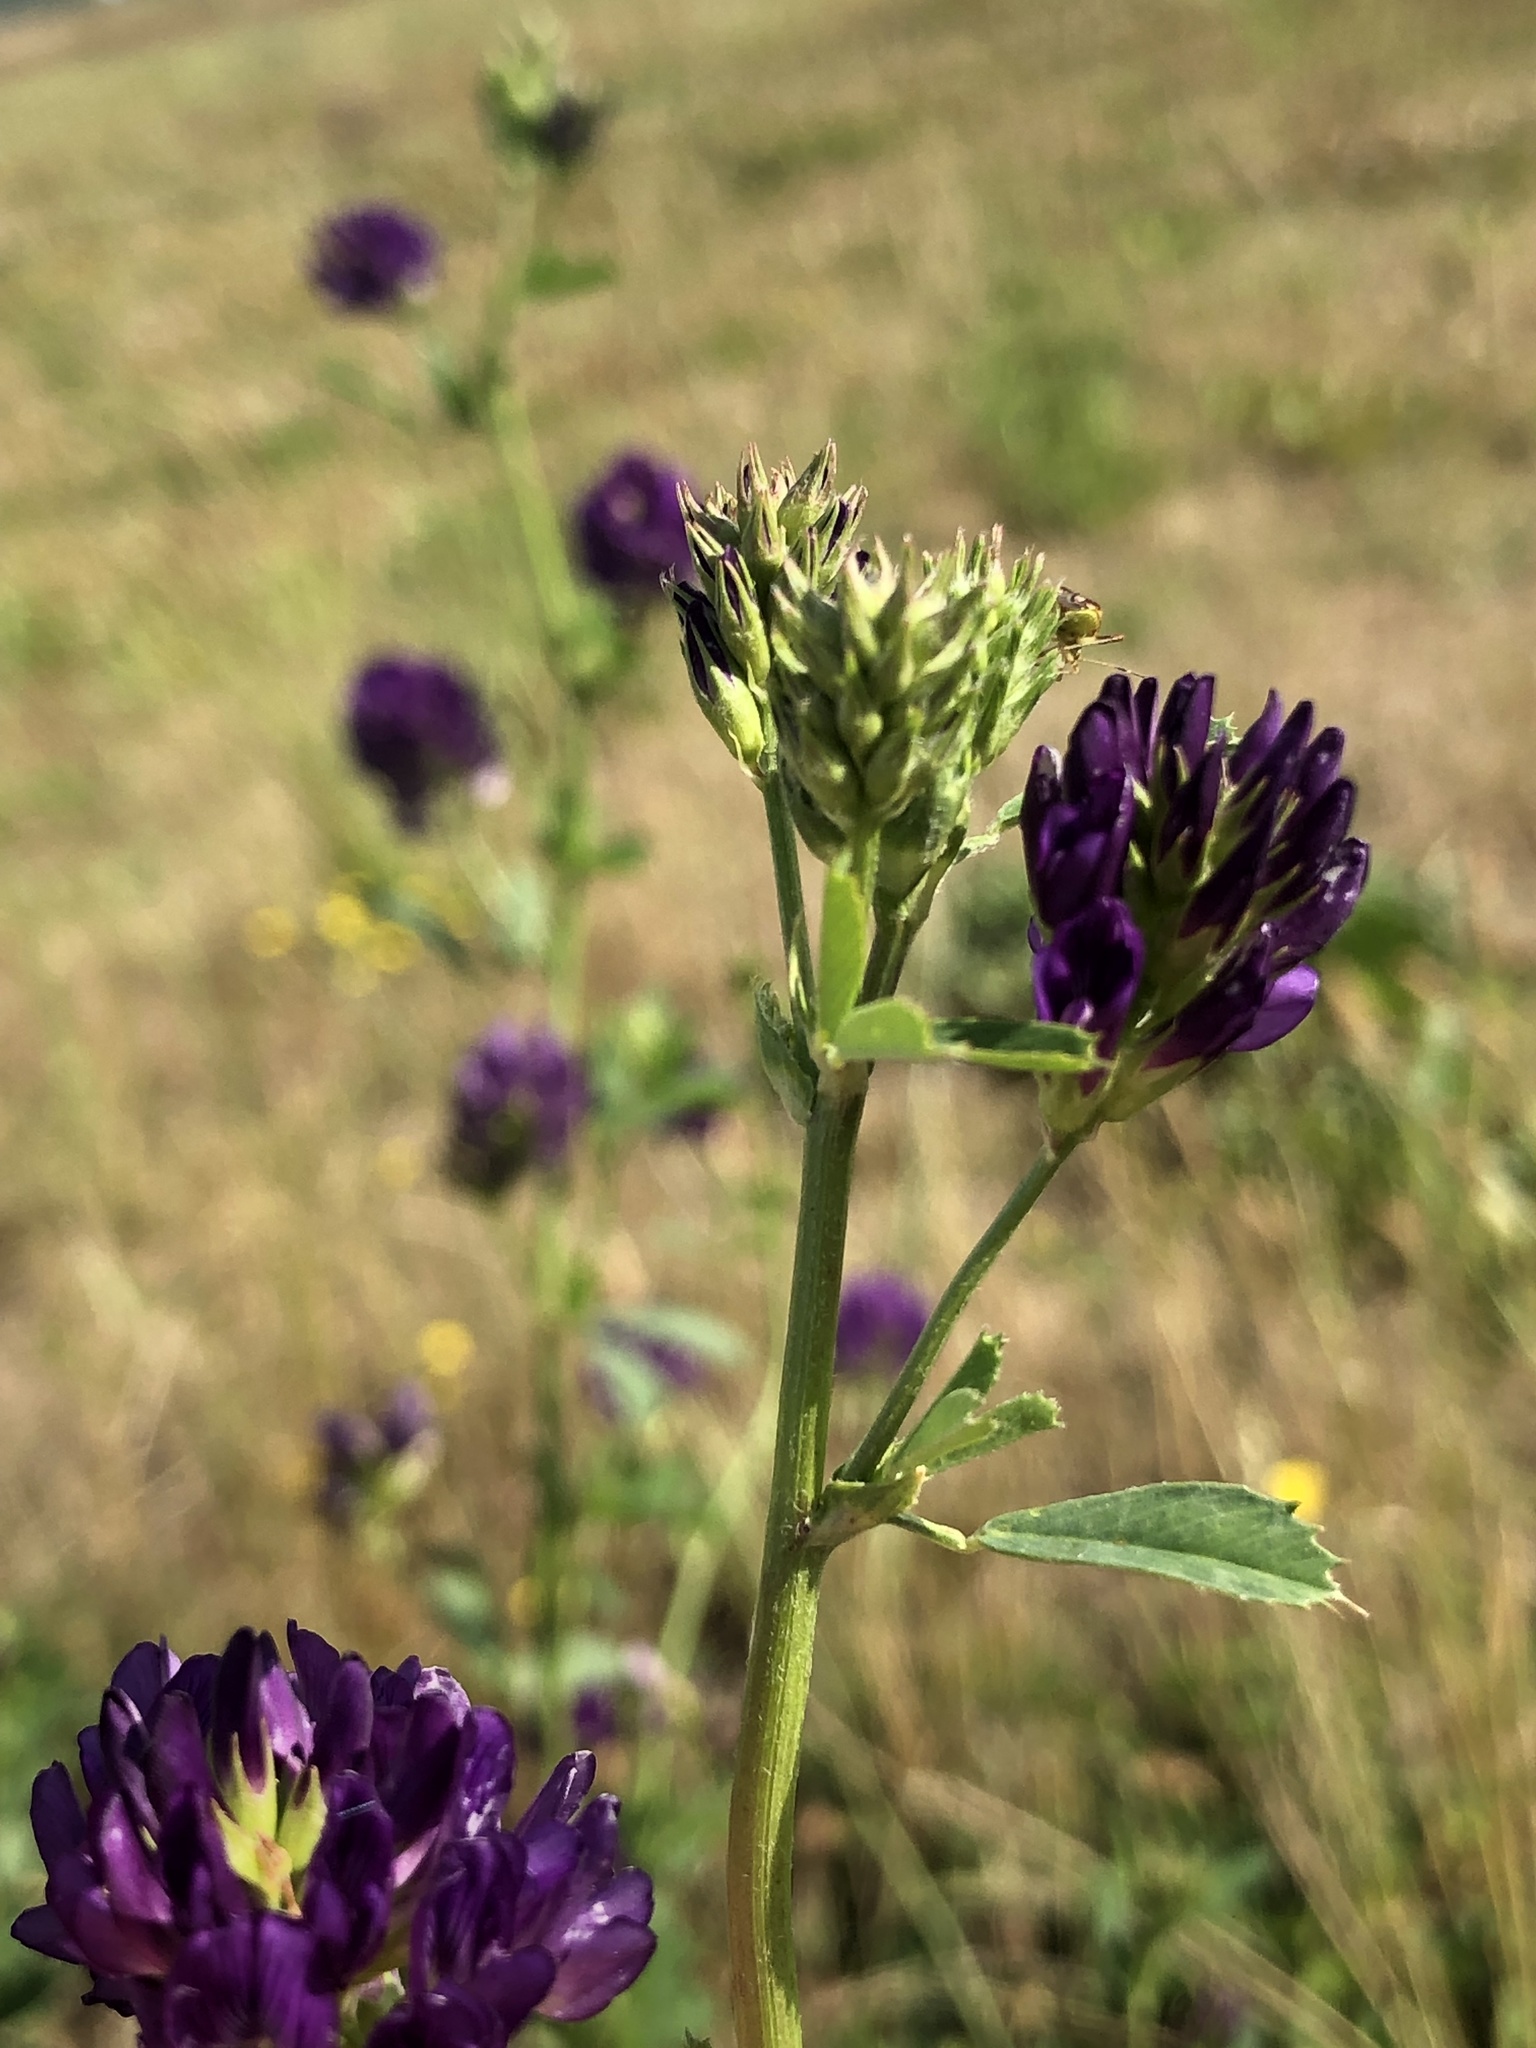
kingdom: Plantae
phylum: Tracheophyta
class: Magnoliopsida
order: Fabales
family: Fabaceae
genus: Medicago
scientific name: Medicago sativa
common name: Alfalfa
